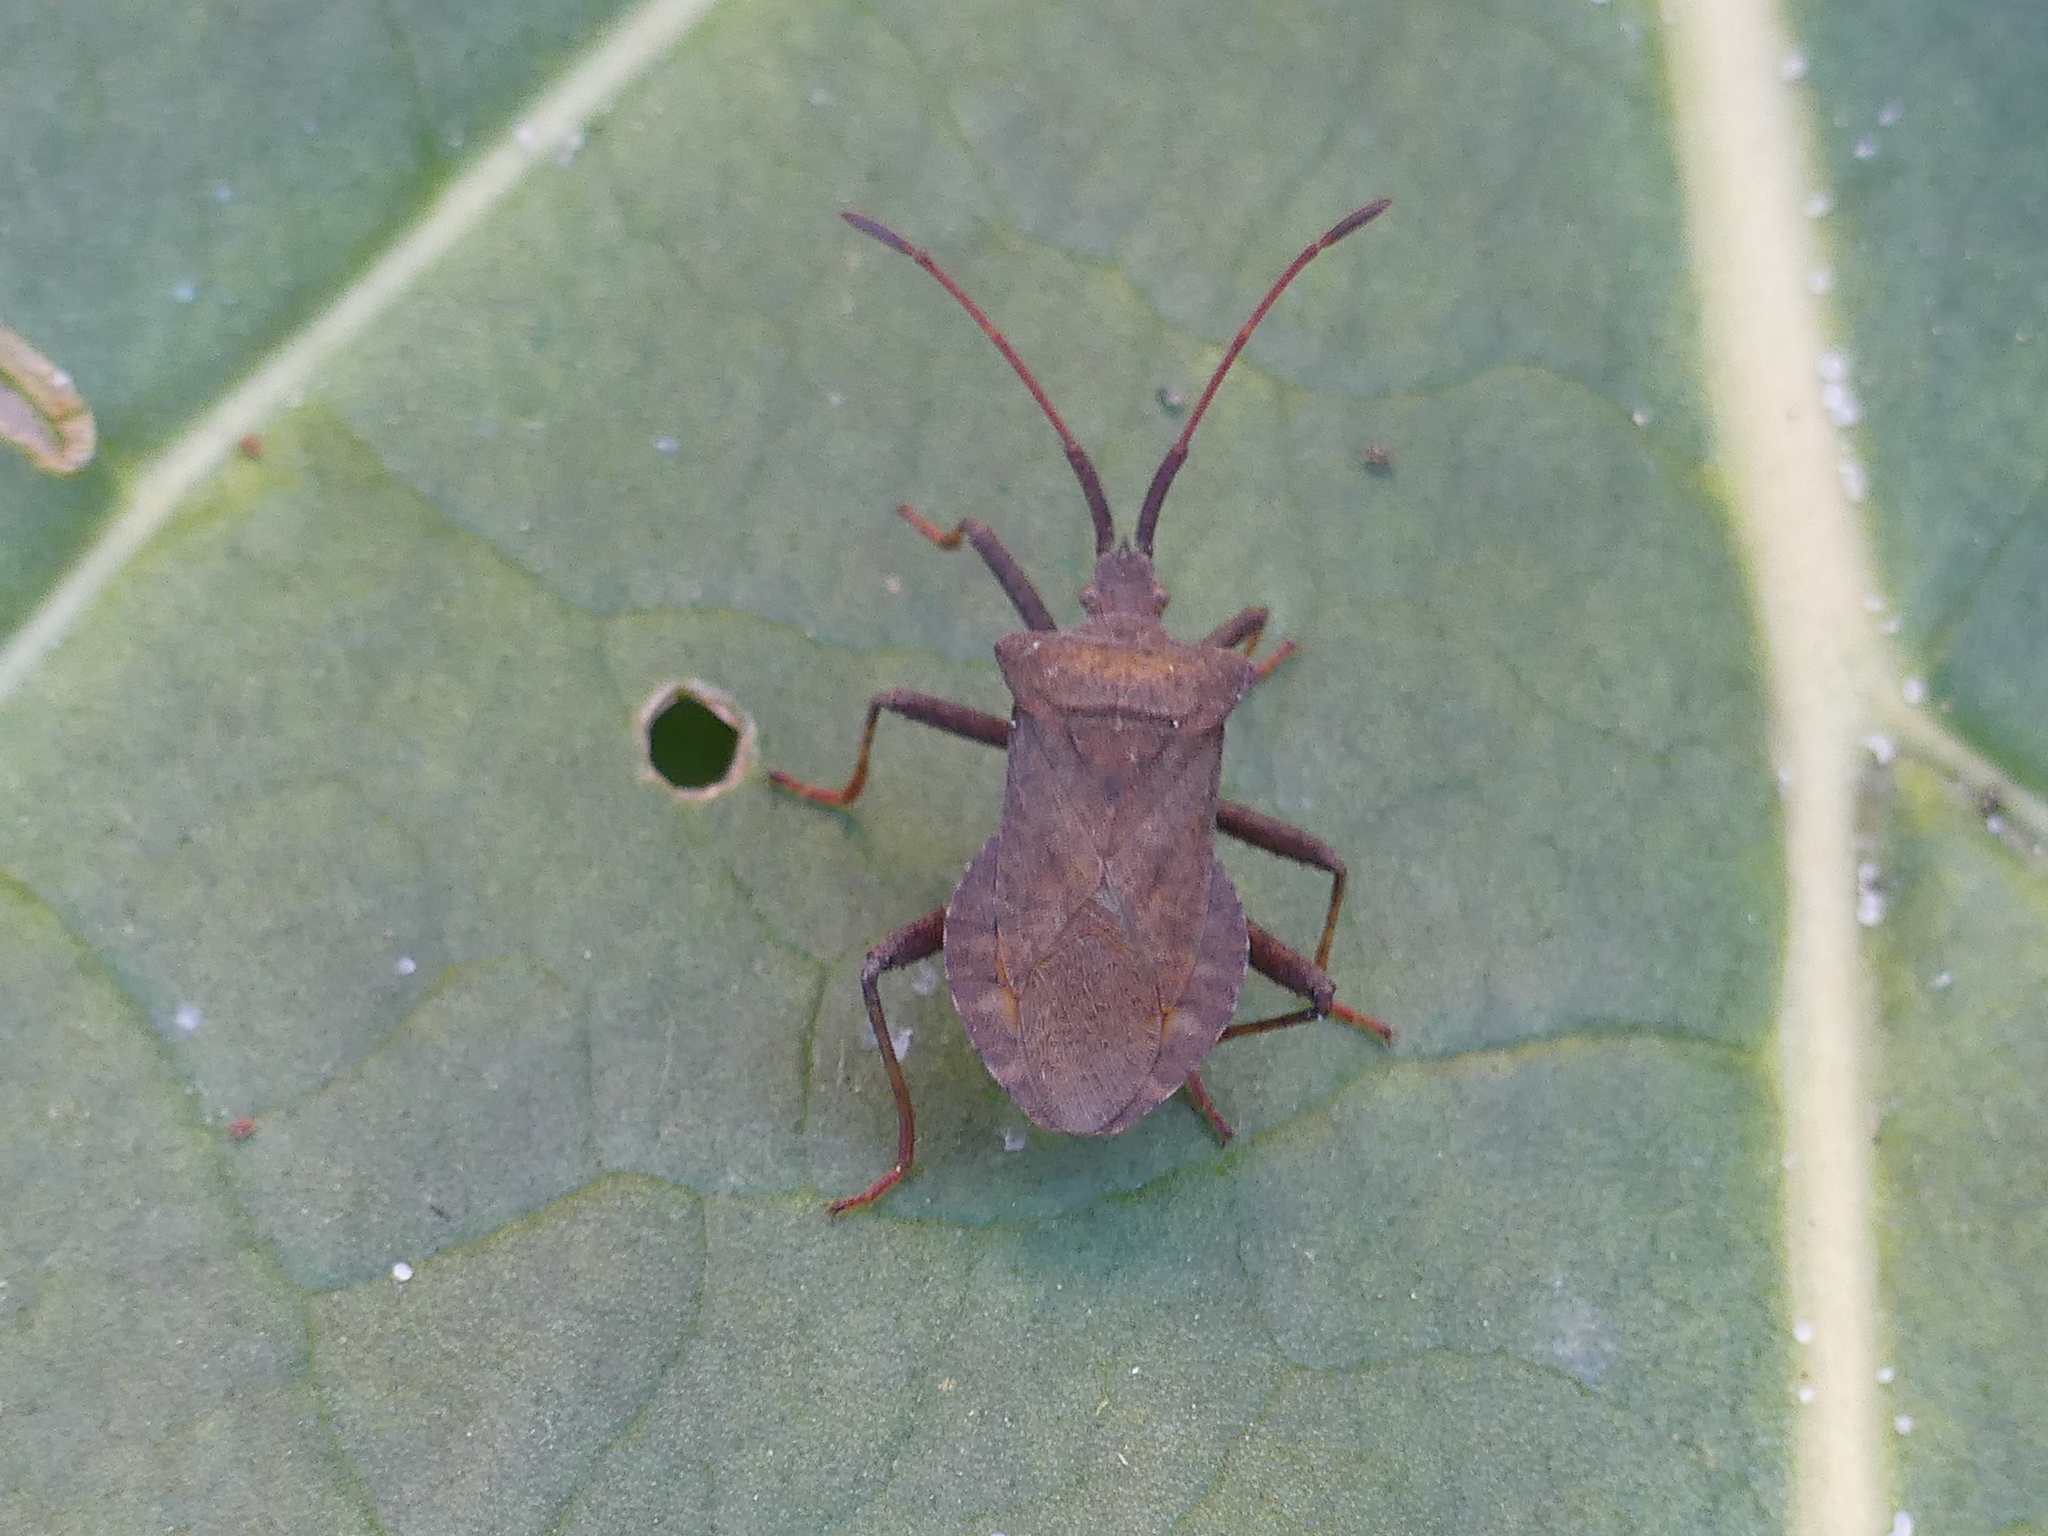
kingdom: Animalia
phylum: Arthropoda
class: Insecta
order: Hemiptera
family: Coreidae
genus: Coreus
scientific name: Coreus marginatus
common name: Dock bug
